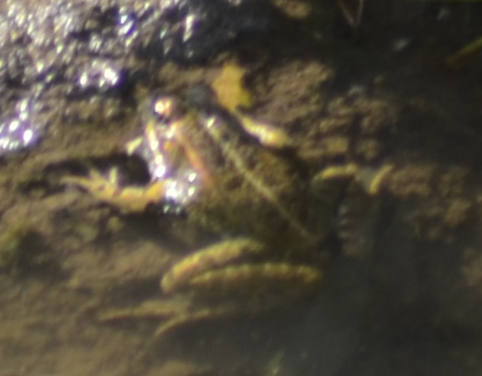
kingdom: Animalia
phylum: Chordata
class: Amphibia
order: Anura
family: Ranidae
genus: Pelophylax
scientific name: Pelophylax perezi
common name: Perez's frog
